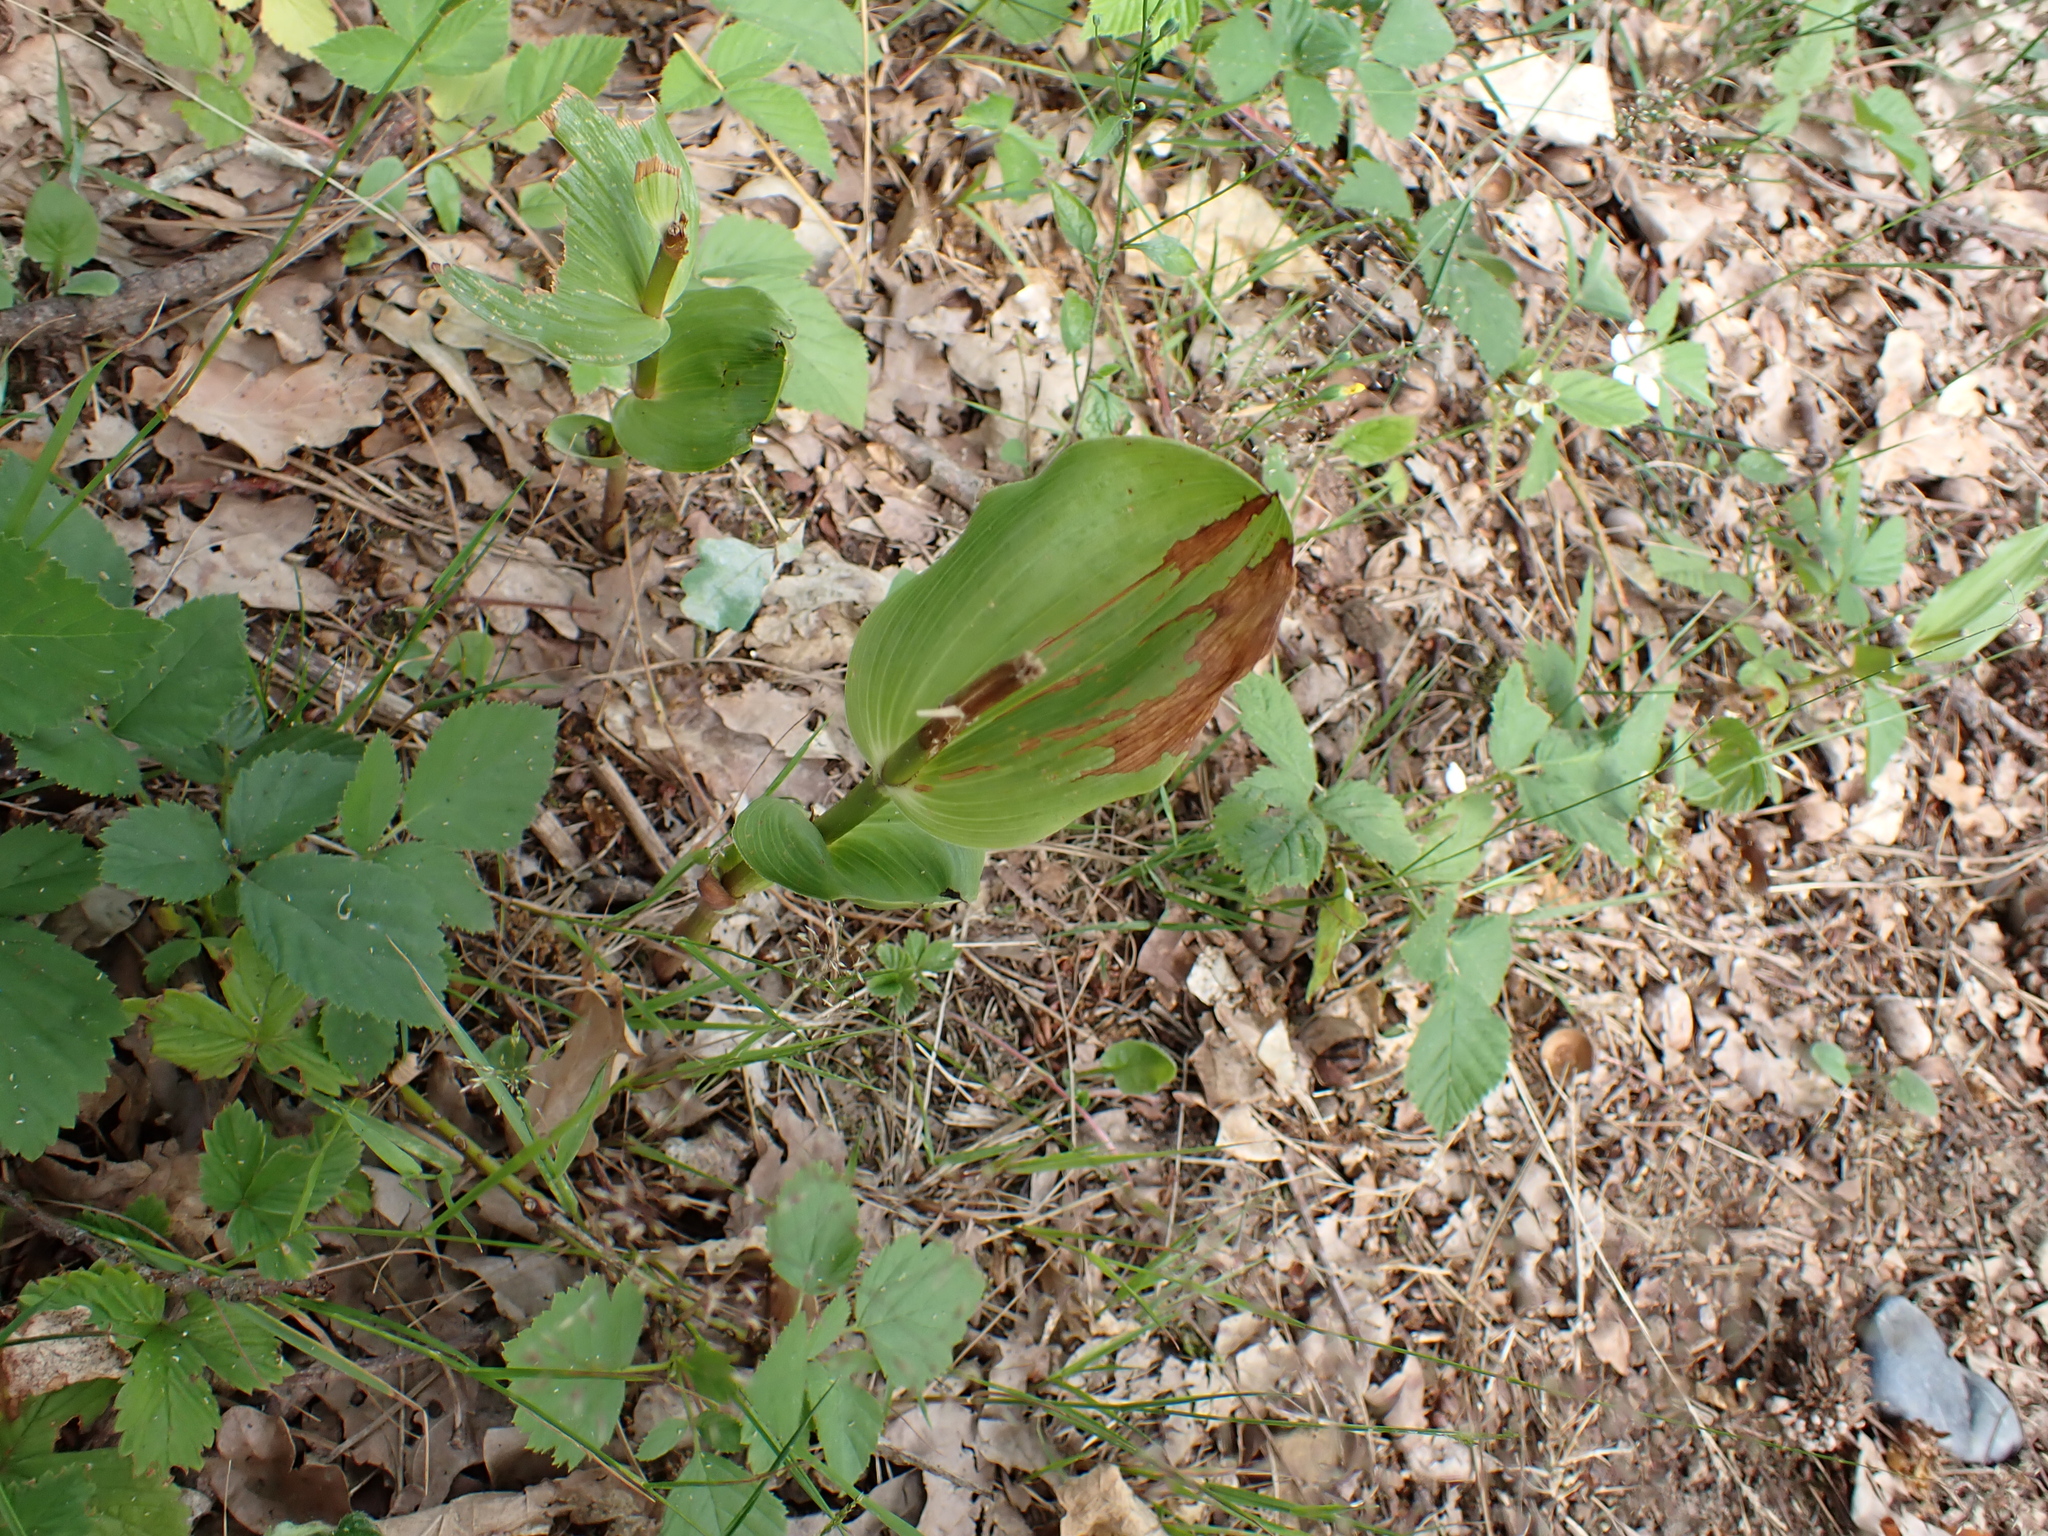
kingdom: Plantae
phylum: Tracheophyta
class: Liliopsida
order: Asparagales
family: Orchidaceae
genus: Epipactis
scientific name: Epipactis helleborine
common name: Broad-leaved helleborine
